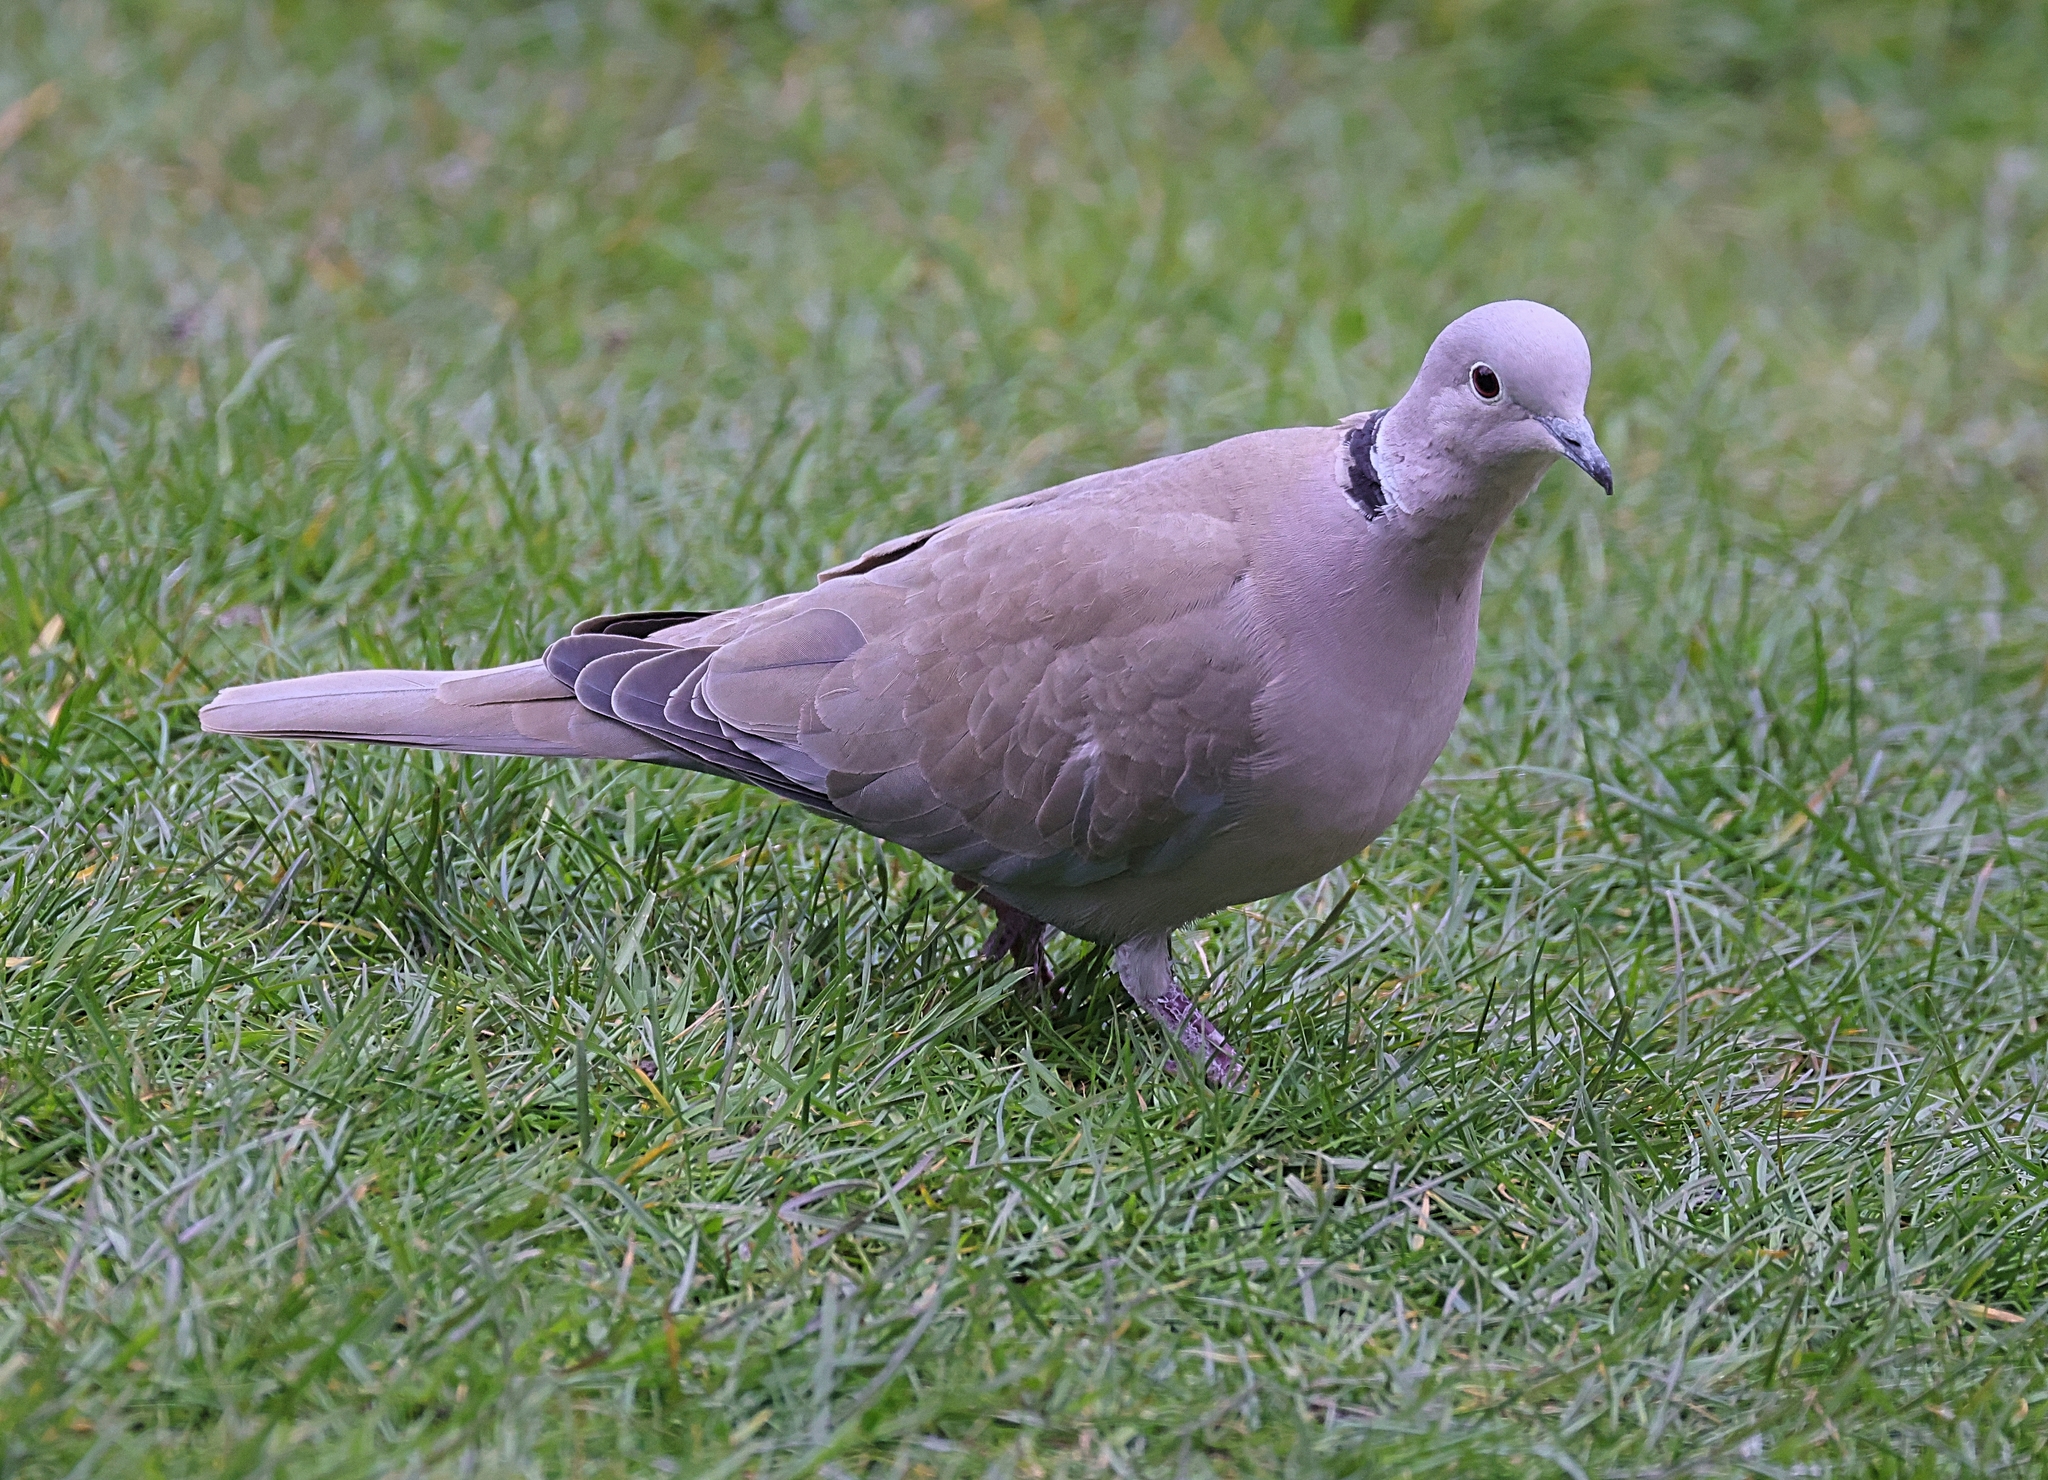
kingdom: Animalia
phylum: Chordata
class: Aves
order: Columbiformes
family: Columbidae
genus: Streptopelia
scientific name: Streptopelia decaocto
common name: Eurasian collared dove
